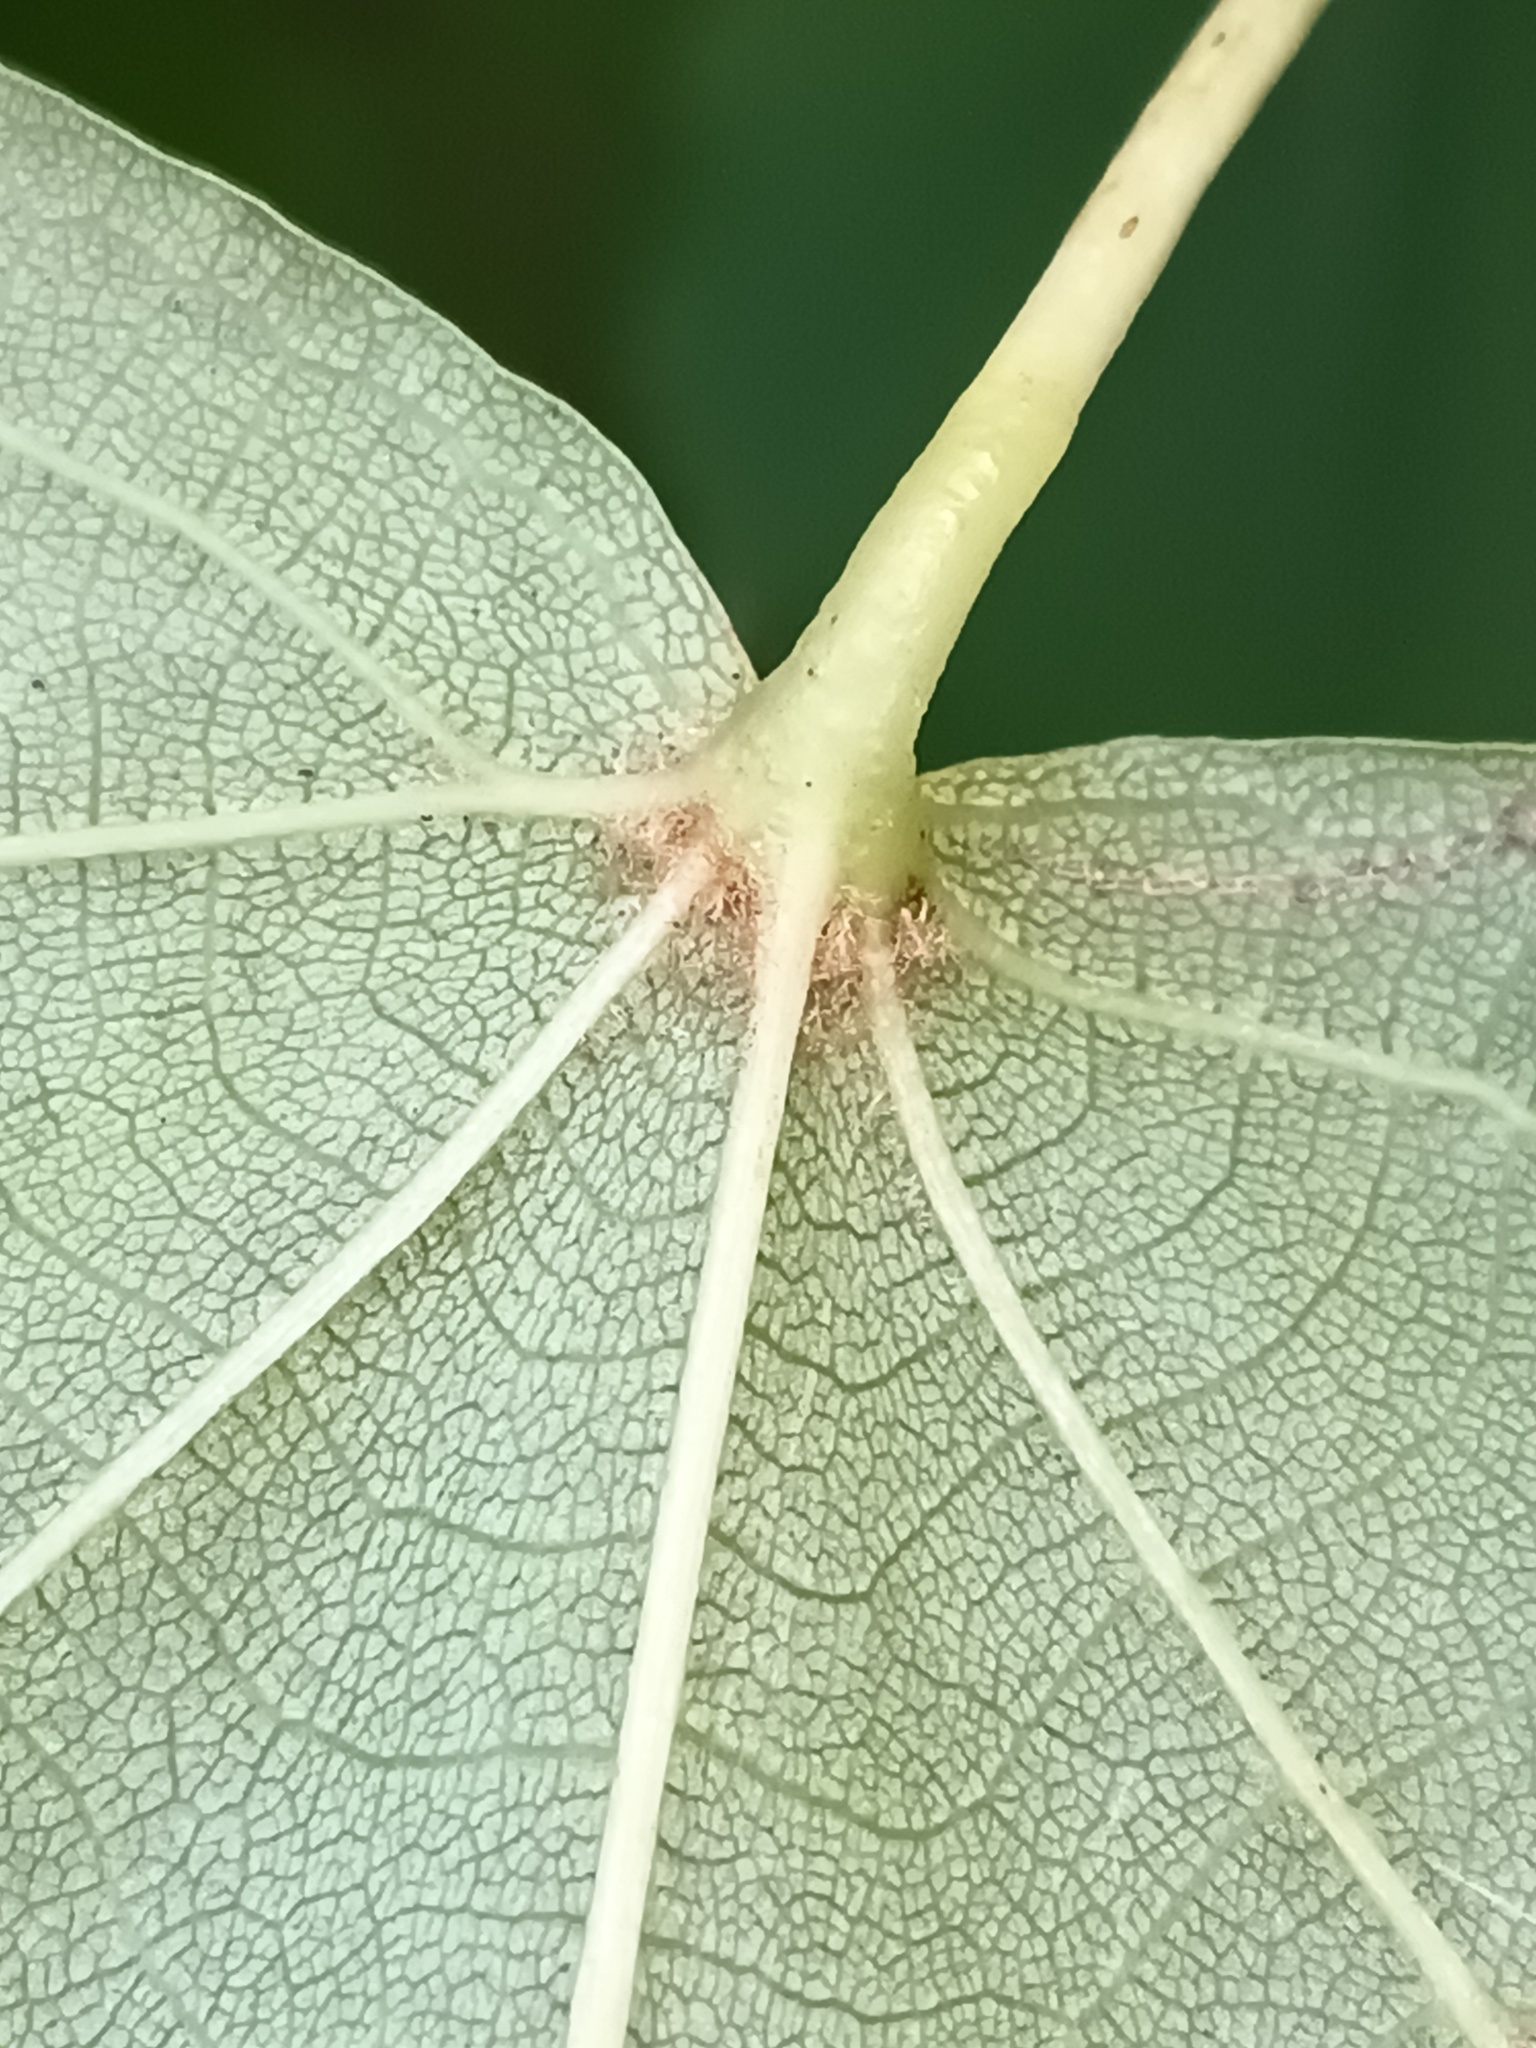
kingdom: Plantae
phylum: Tracheophyta
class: Magnoliopsida
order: Malvales
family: Malvaceae
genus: Tilia
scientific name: Tilia cordata
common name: Small-leaved lime
